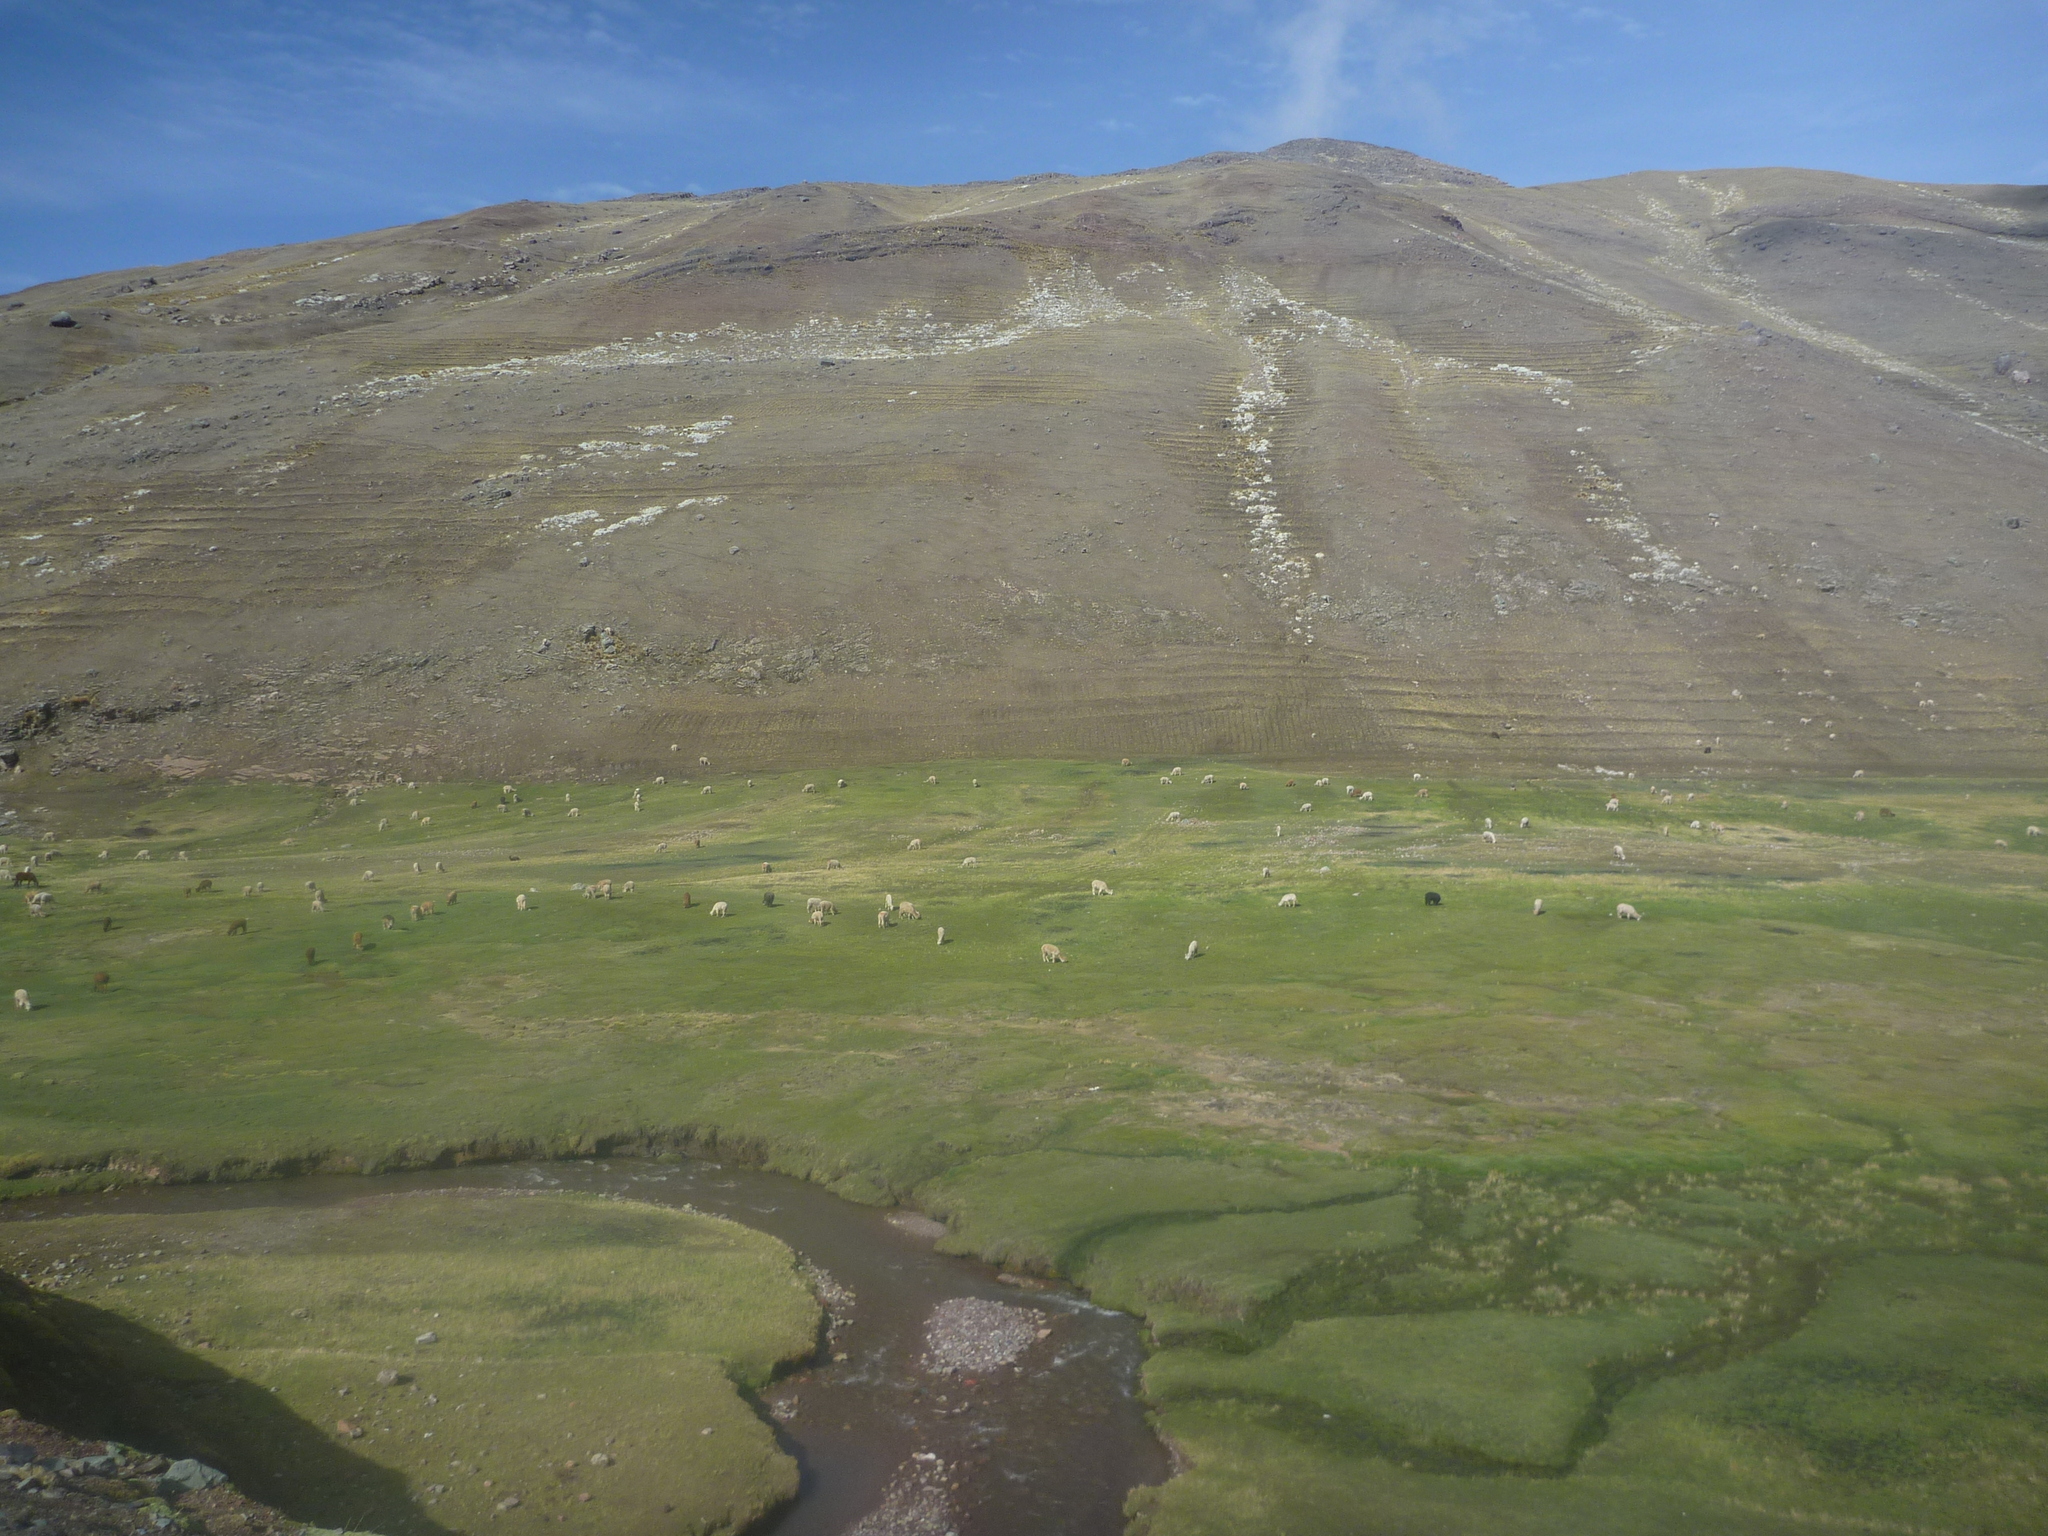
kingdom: Animalia
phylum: Chordata
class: Mammalia
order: Artiodactyla
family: Camelidae
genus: Vicugna
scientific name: Vicugna pacos
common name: Alpaca
